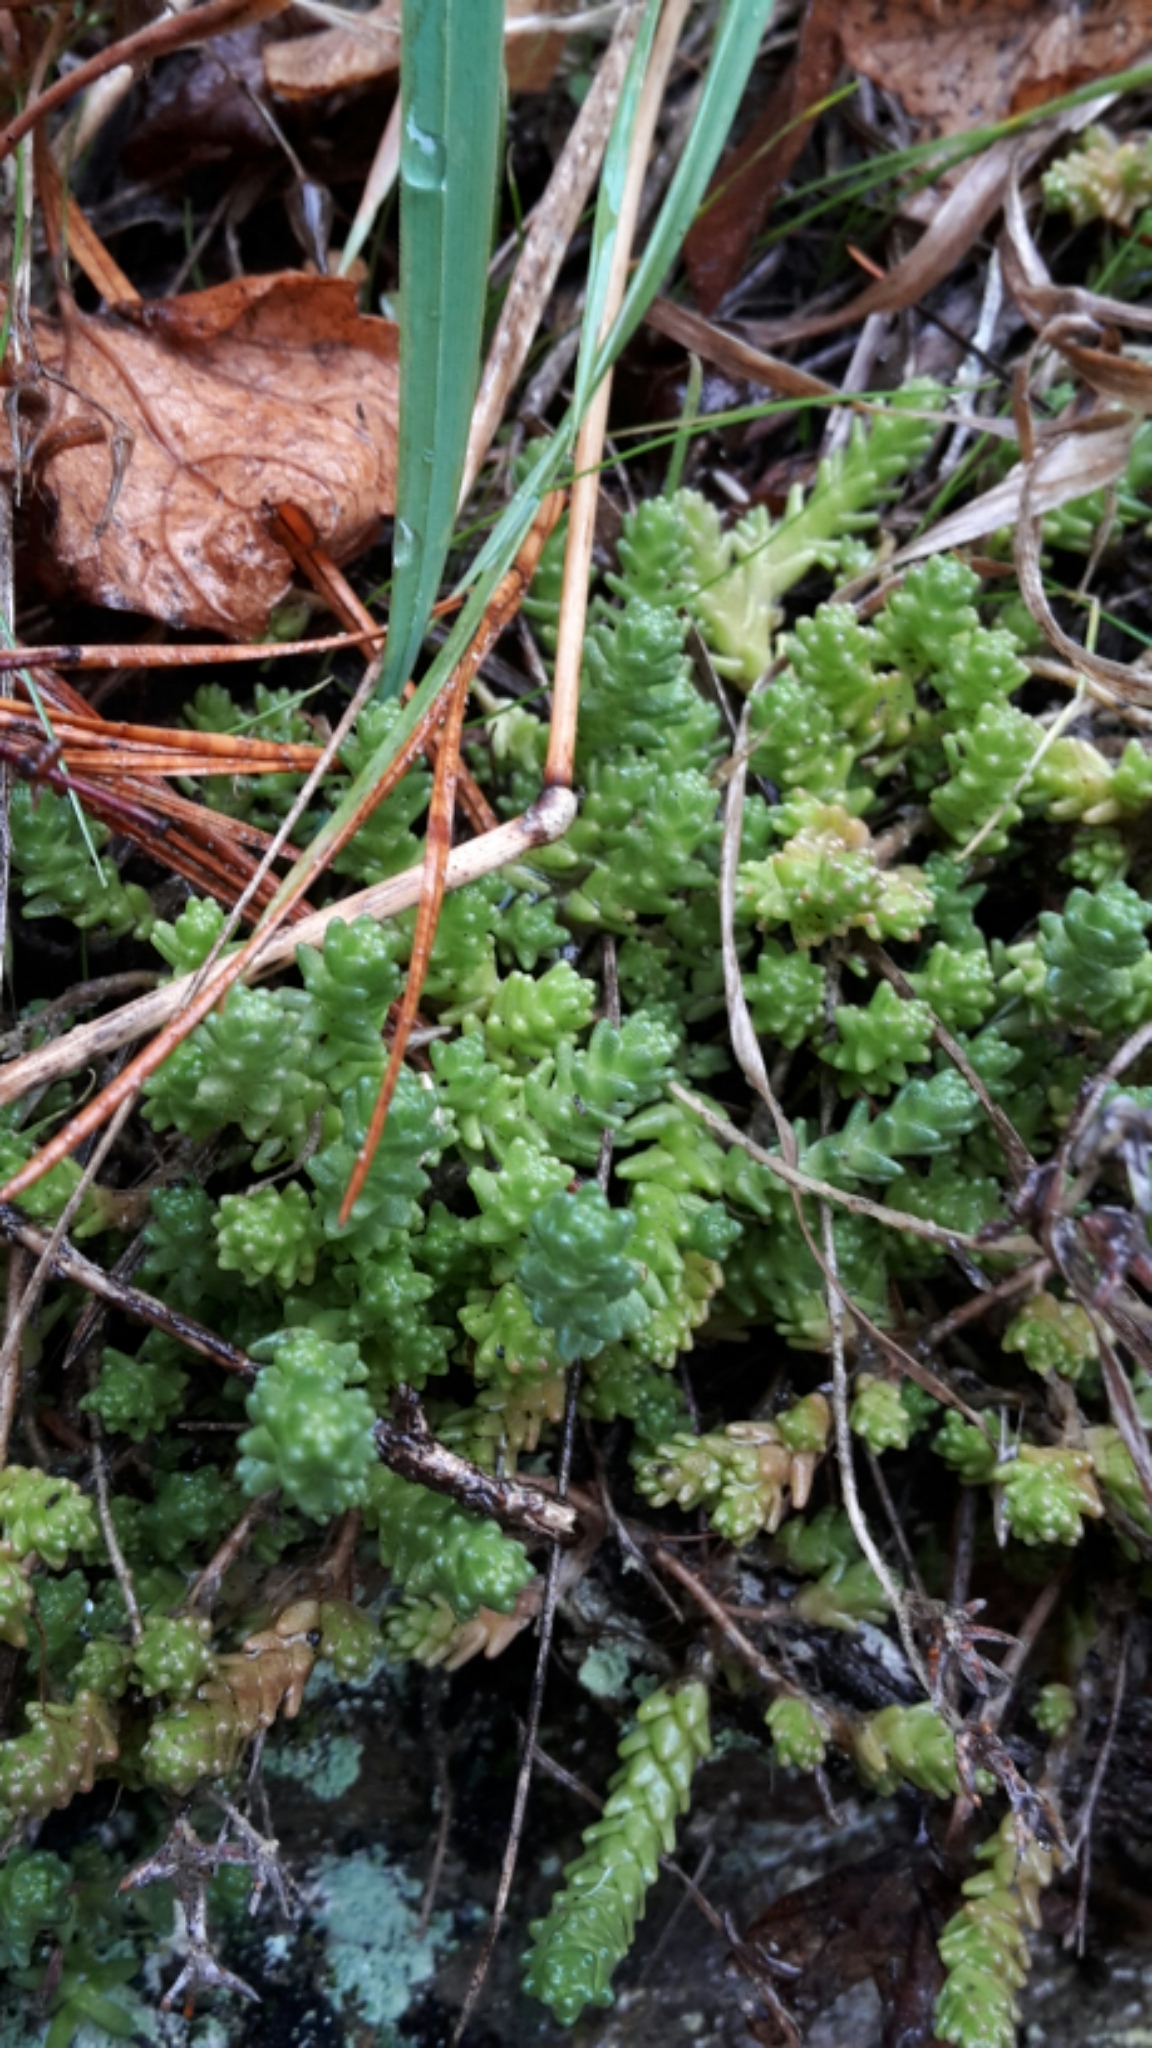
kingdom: Plantae
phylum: Tracheophyta
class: Magnoliopsida
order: Saxifragales
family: Crassulaceae
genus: Sedum
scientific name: Sedum acre
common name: Biting stonecrop
